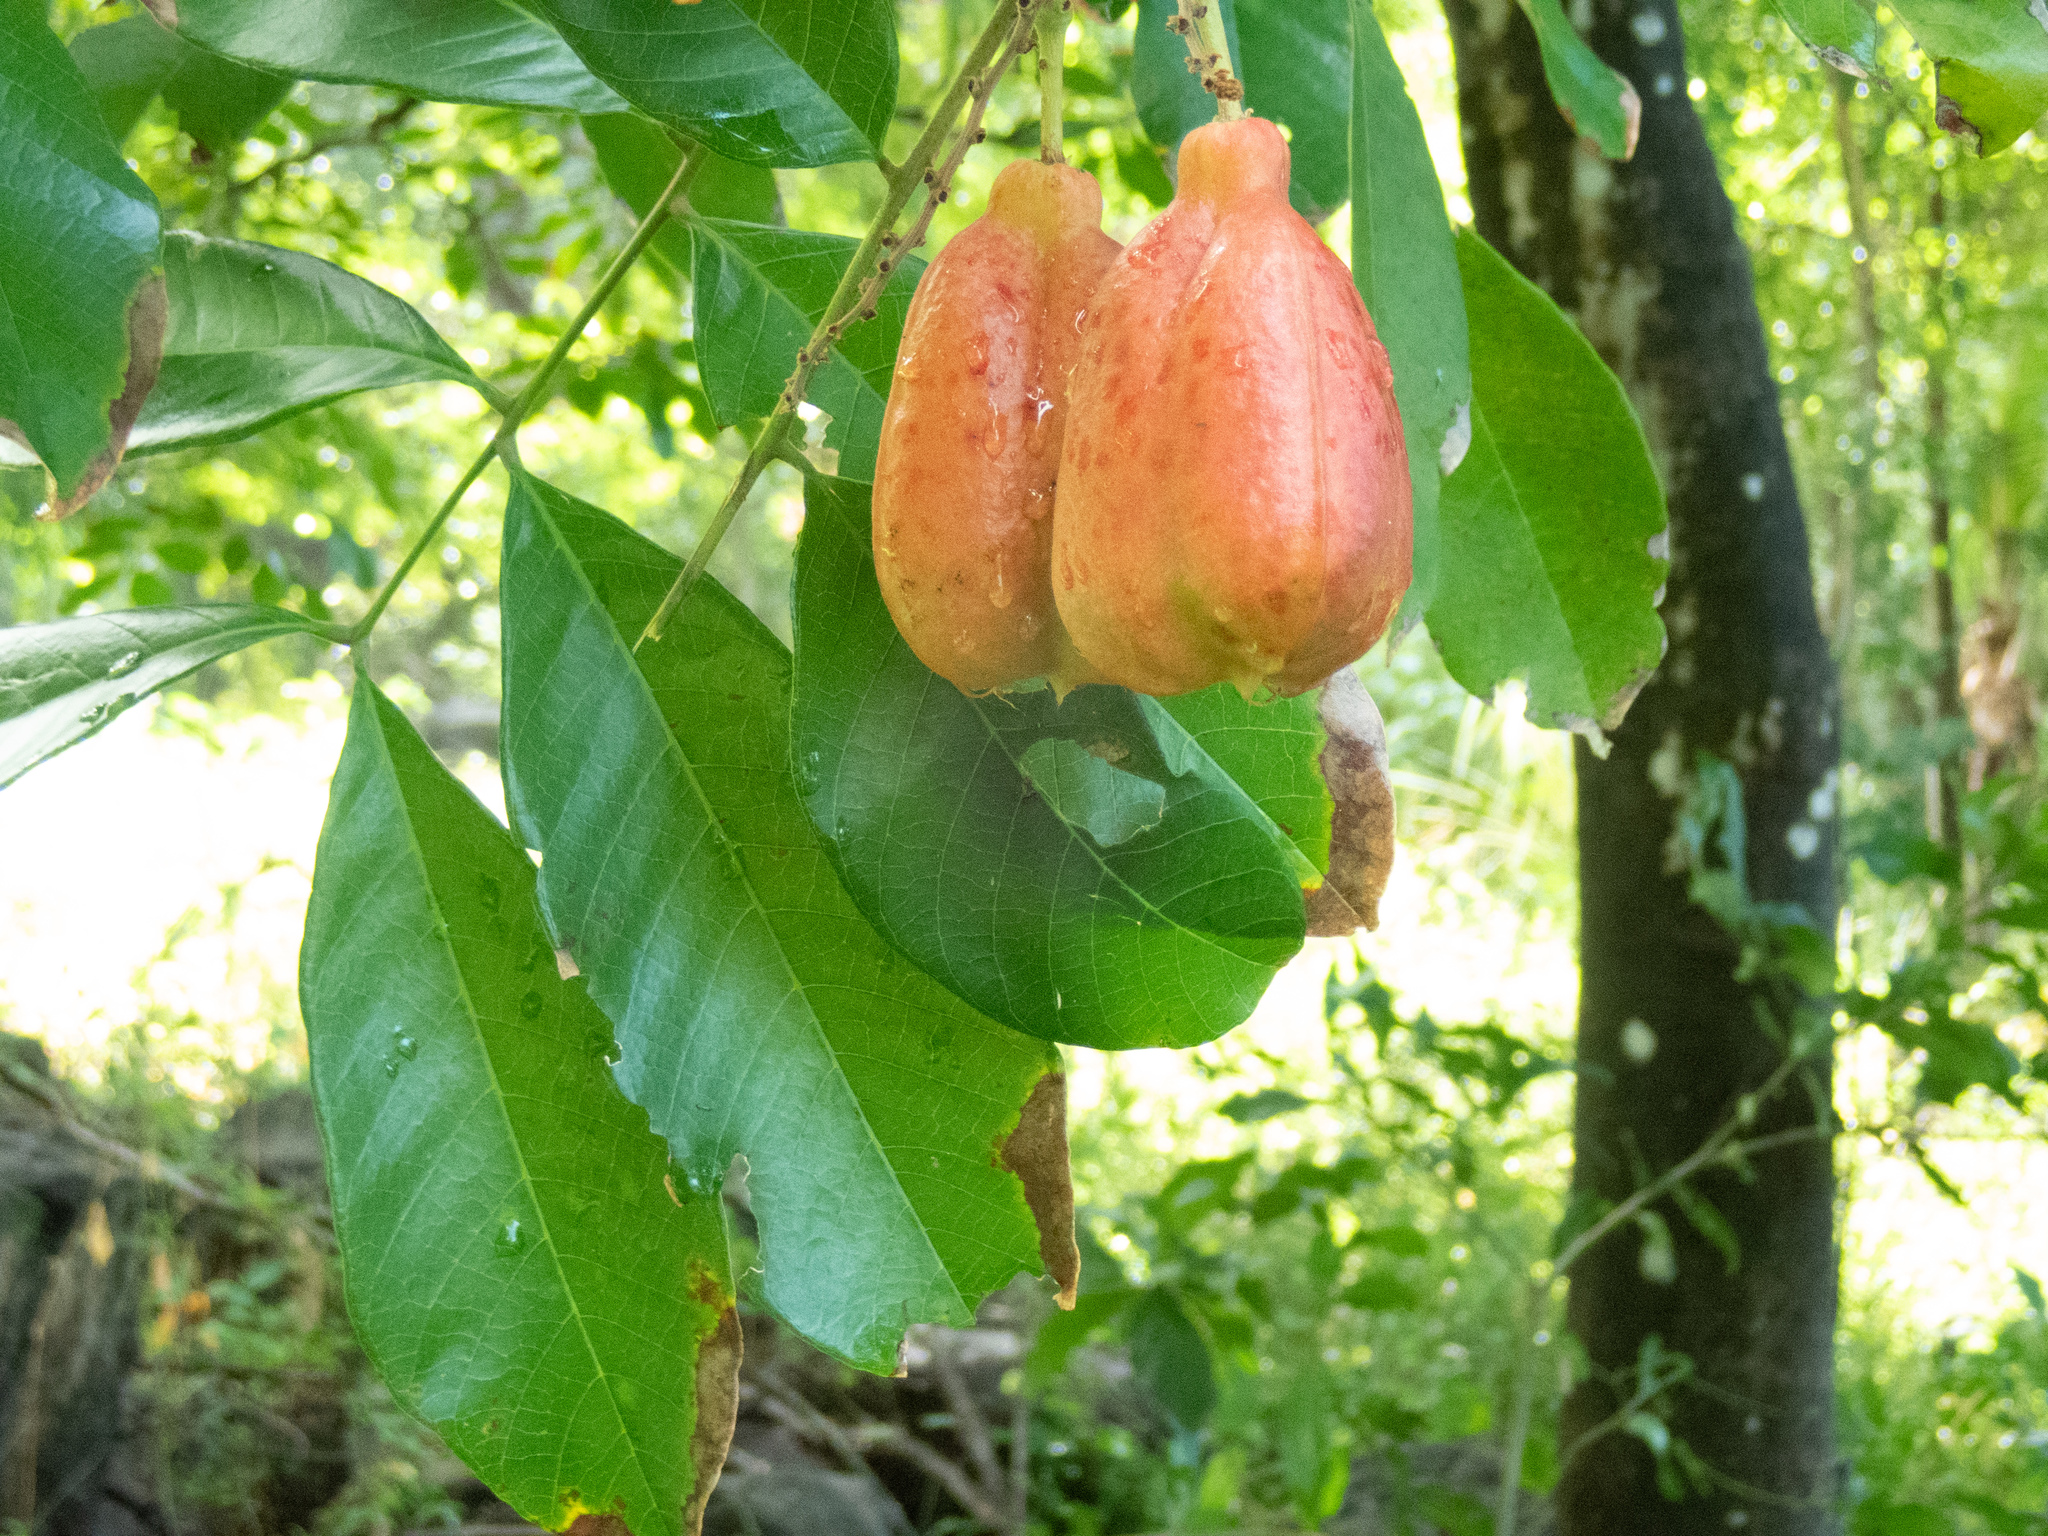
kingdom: Plantae
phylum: Tracheophyta
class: Magnoliopsida
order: Sapindales
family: Sapindaceae
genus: Blighia
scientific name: Blighia sapida
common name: Akee
